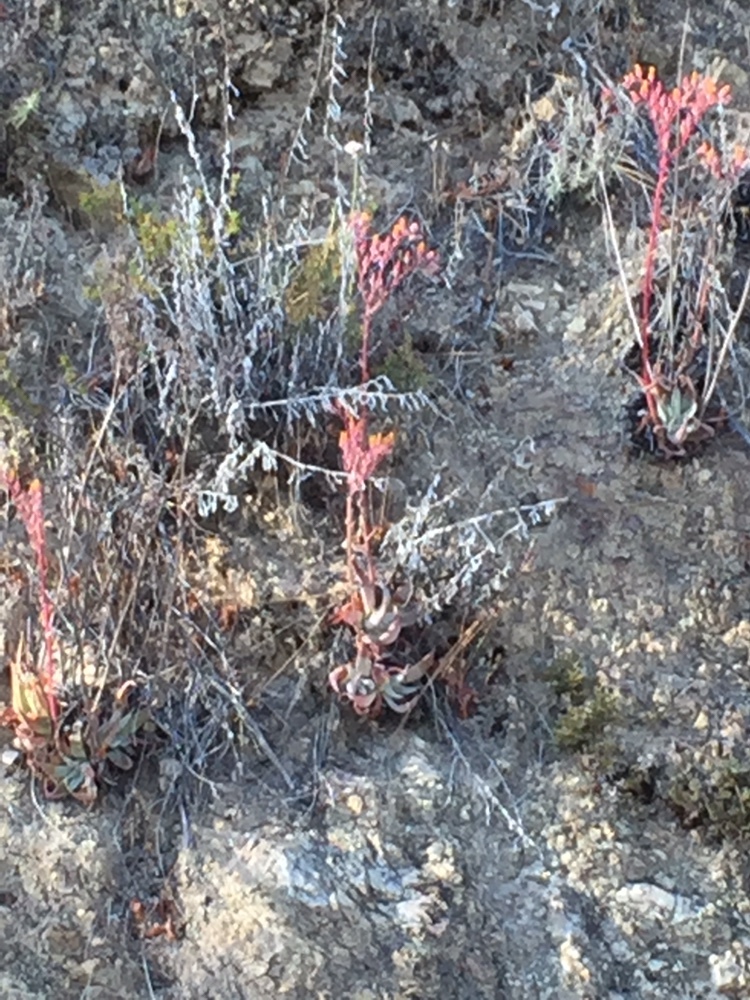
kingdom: Plantae
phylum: Tracheophyta
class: Magnoliopsida
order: Saxifragales
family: Crassulaceae
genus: Dudleya
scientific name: Dudleya lanceolata
